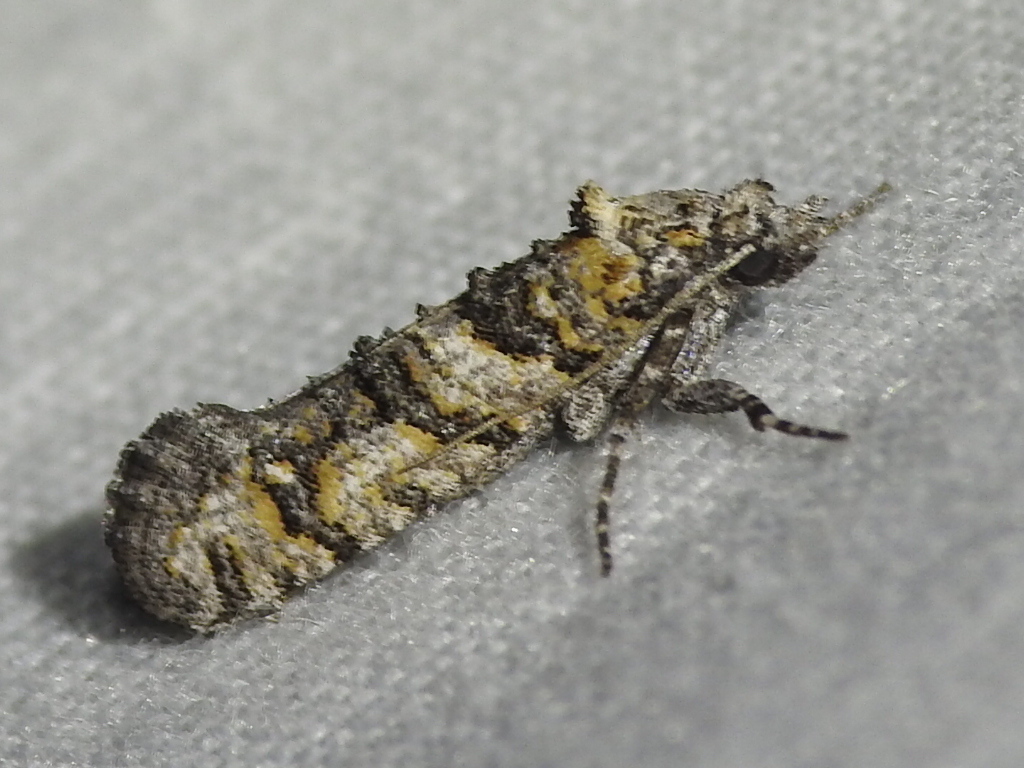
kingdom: Animalia
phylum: Arthropoda
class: Insecta
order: Lepidoptera
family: Tineidae
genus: Dyotopasta
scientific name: Dyotopasta yumaella
